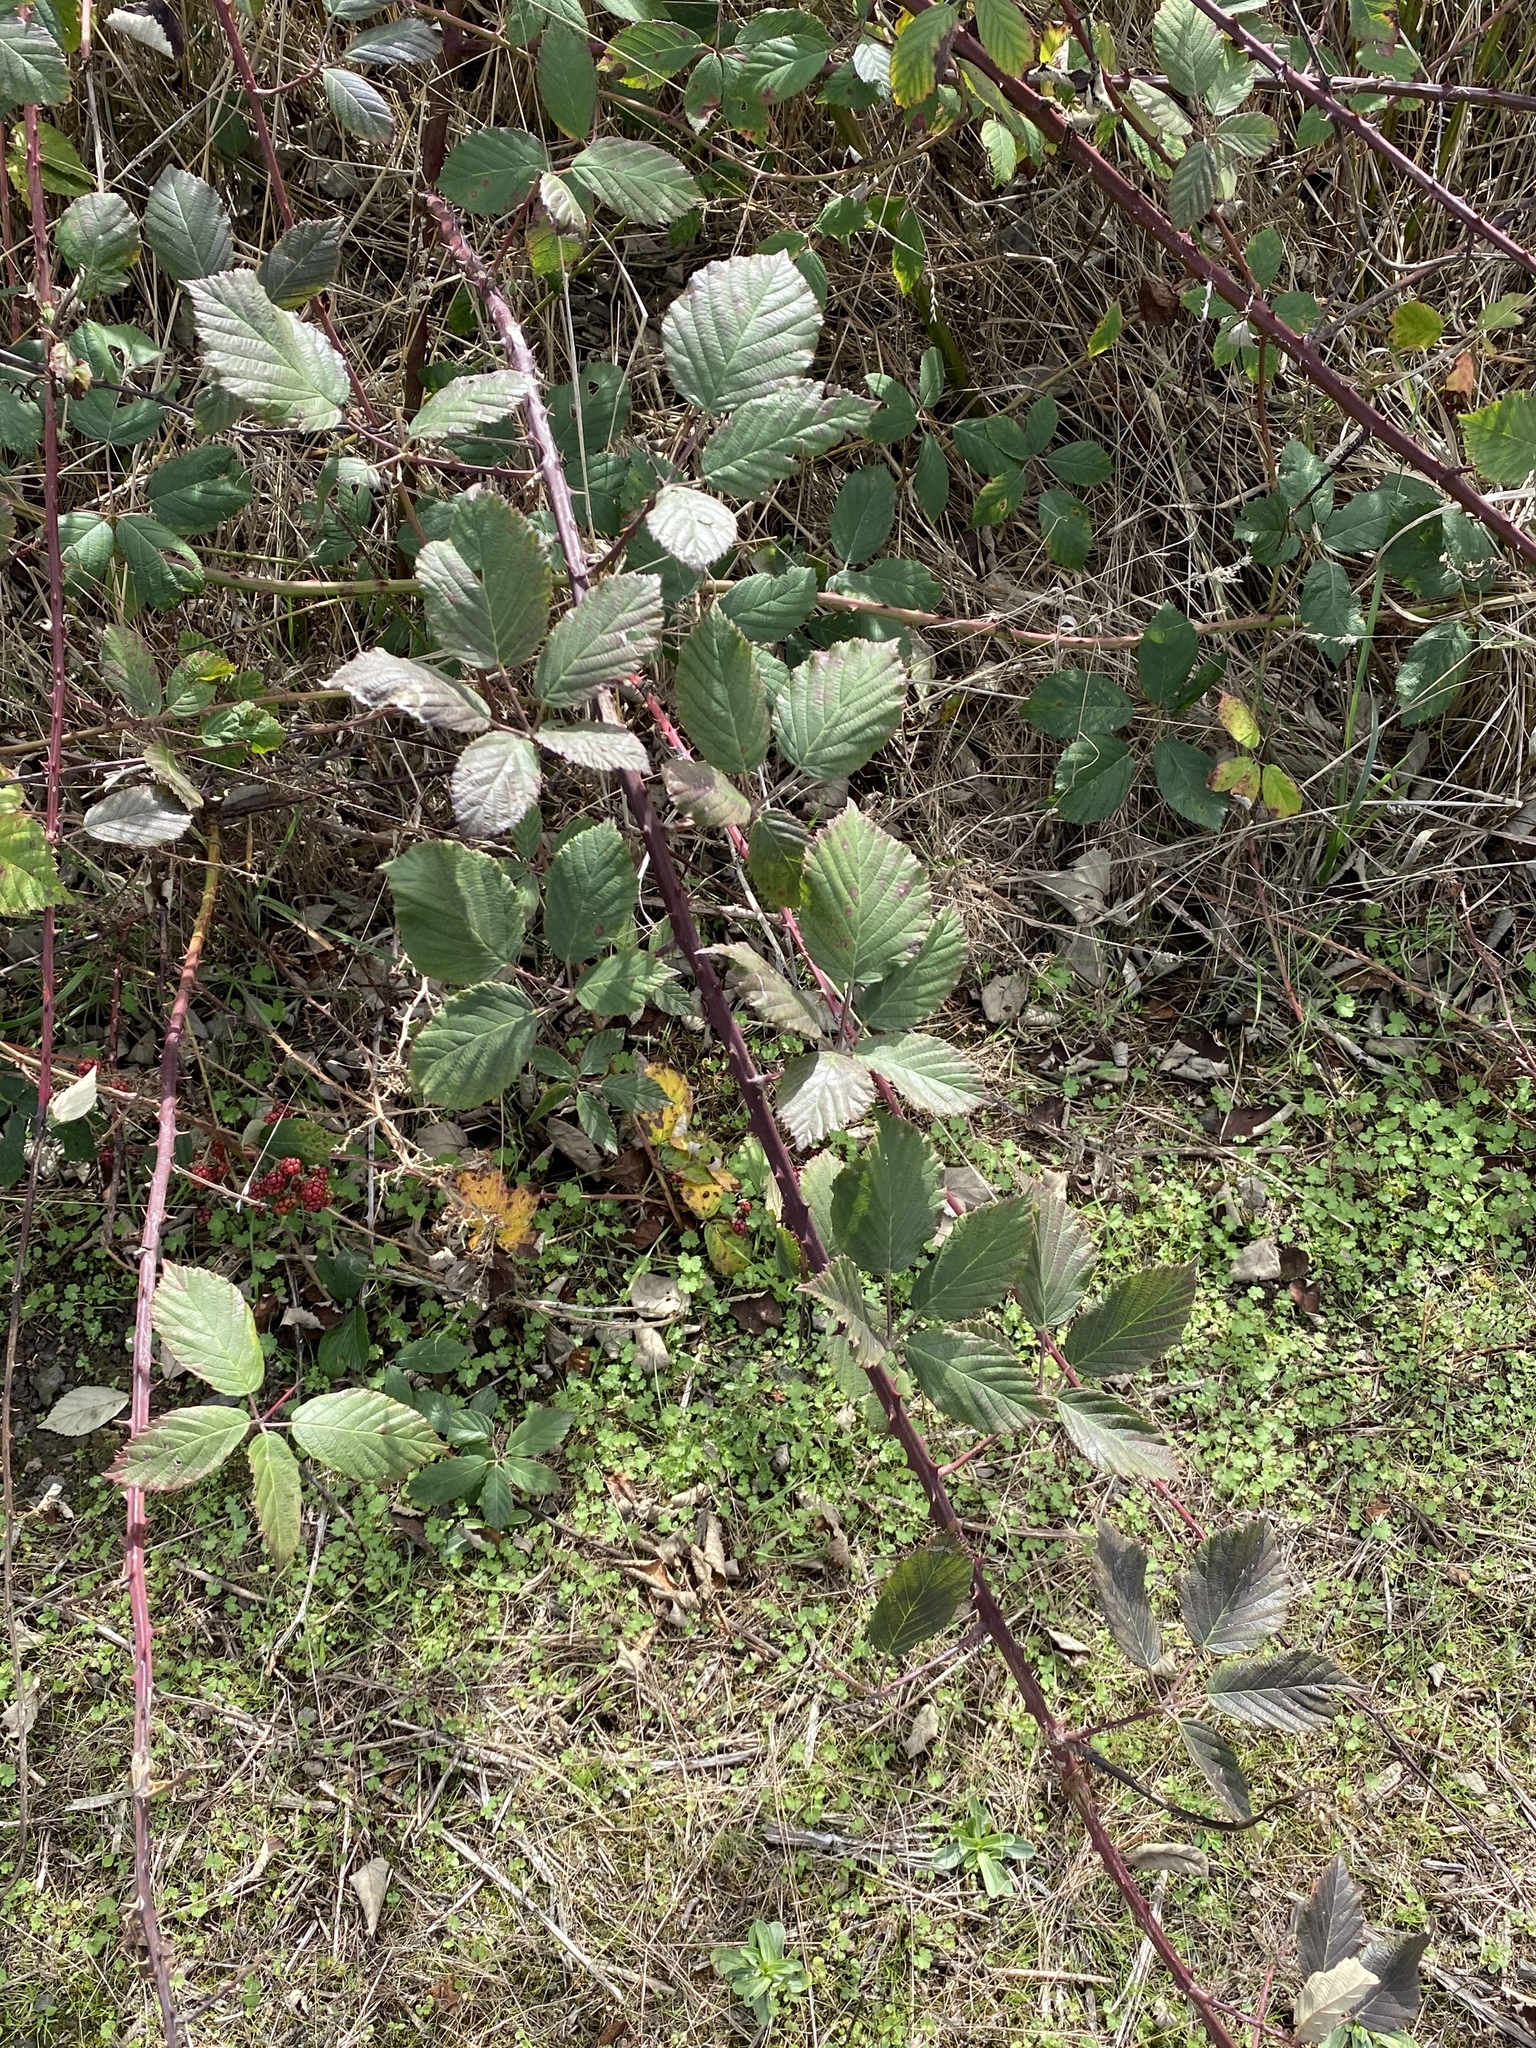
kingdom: Plantae
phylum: Tracheophyta
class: Magnoliopsida
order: Rosales
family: Rosaceae
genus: Rubus
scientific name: Rubus bifrons
